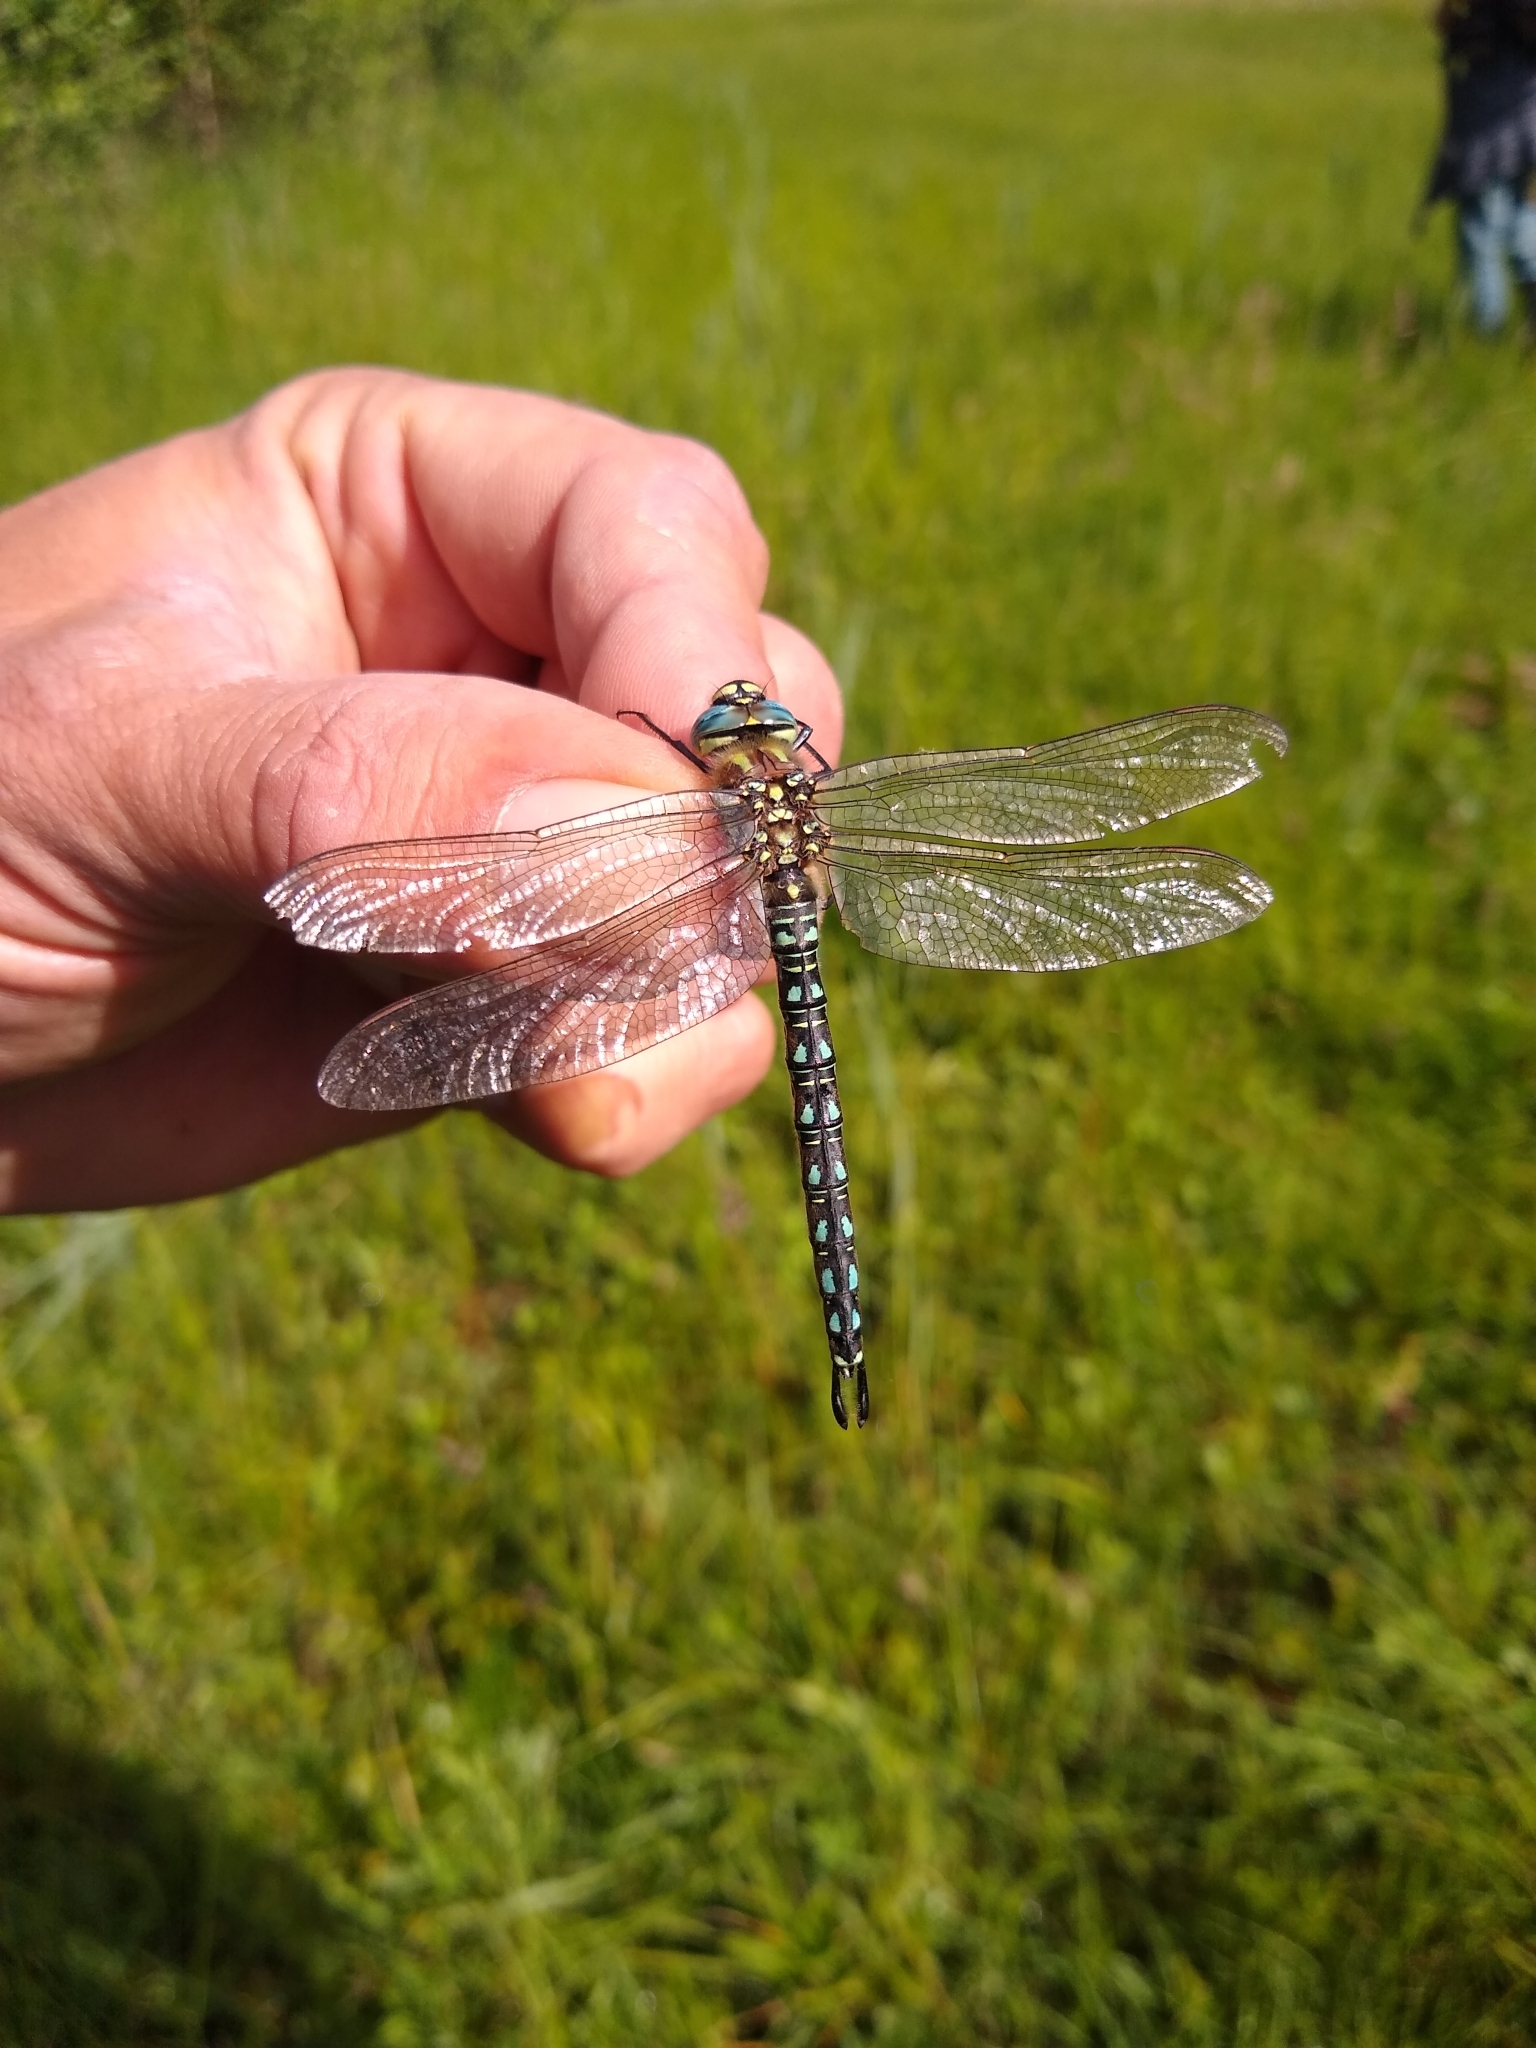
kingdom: Animalia
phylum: Arthropoda
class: Insecta
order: Odonata
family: Aeshnidae
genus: Brachytron
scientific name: Brachytron pratense
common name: Hairy hawker
